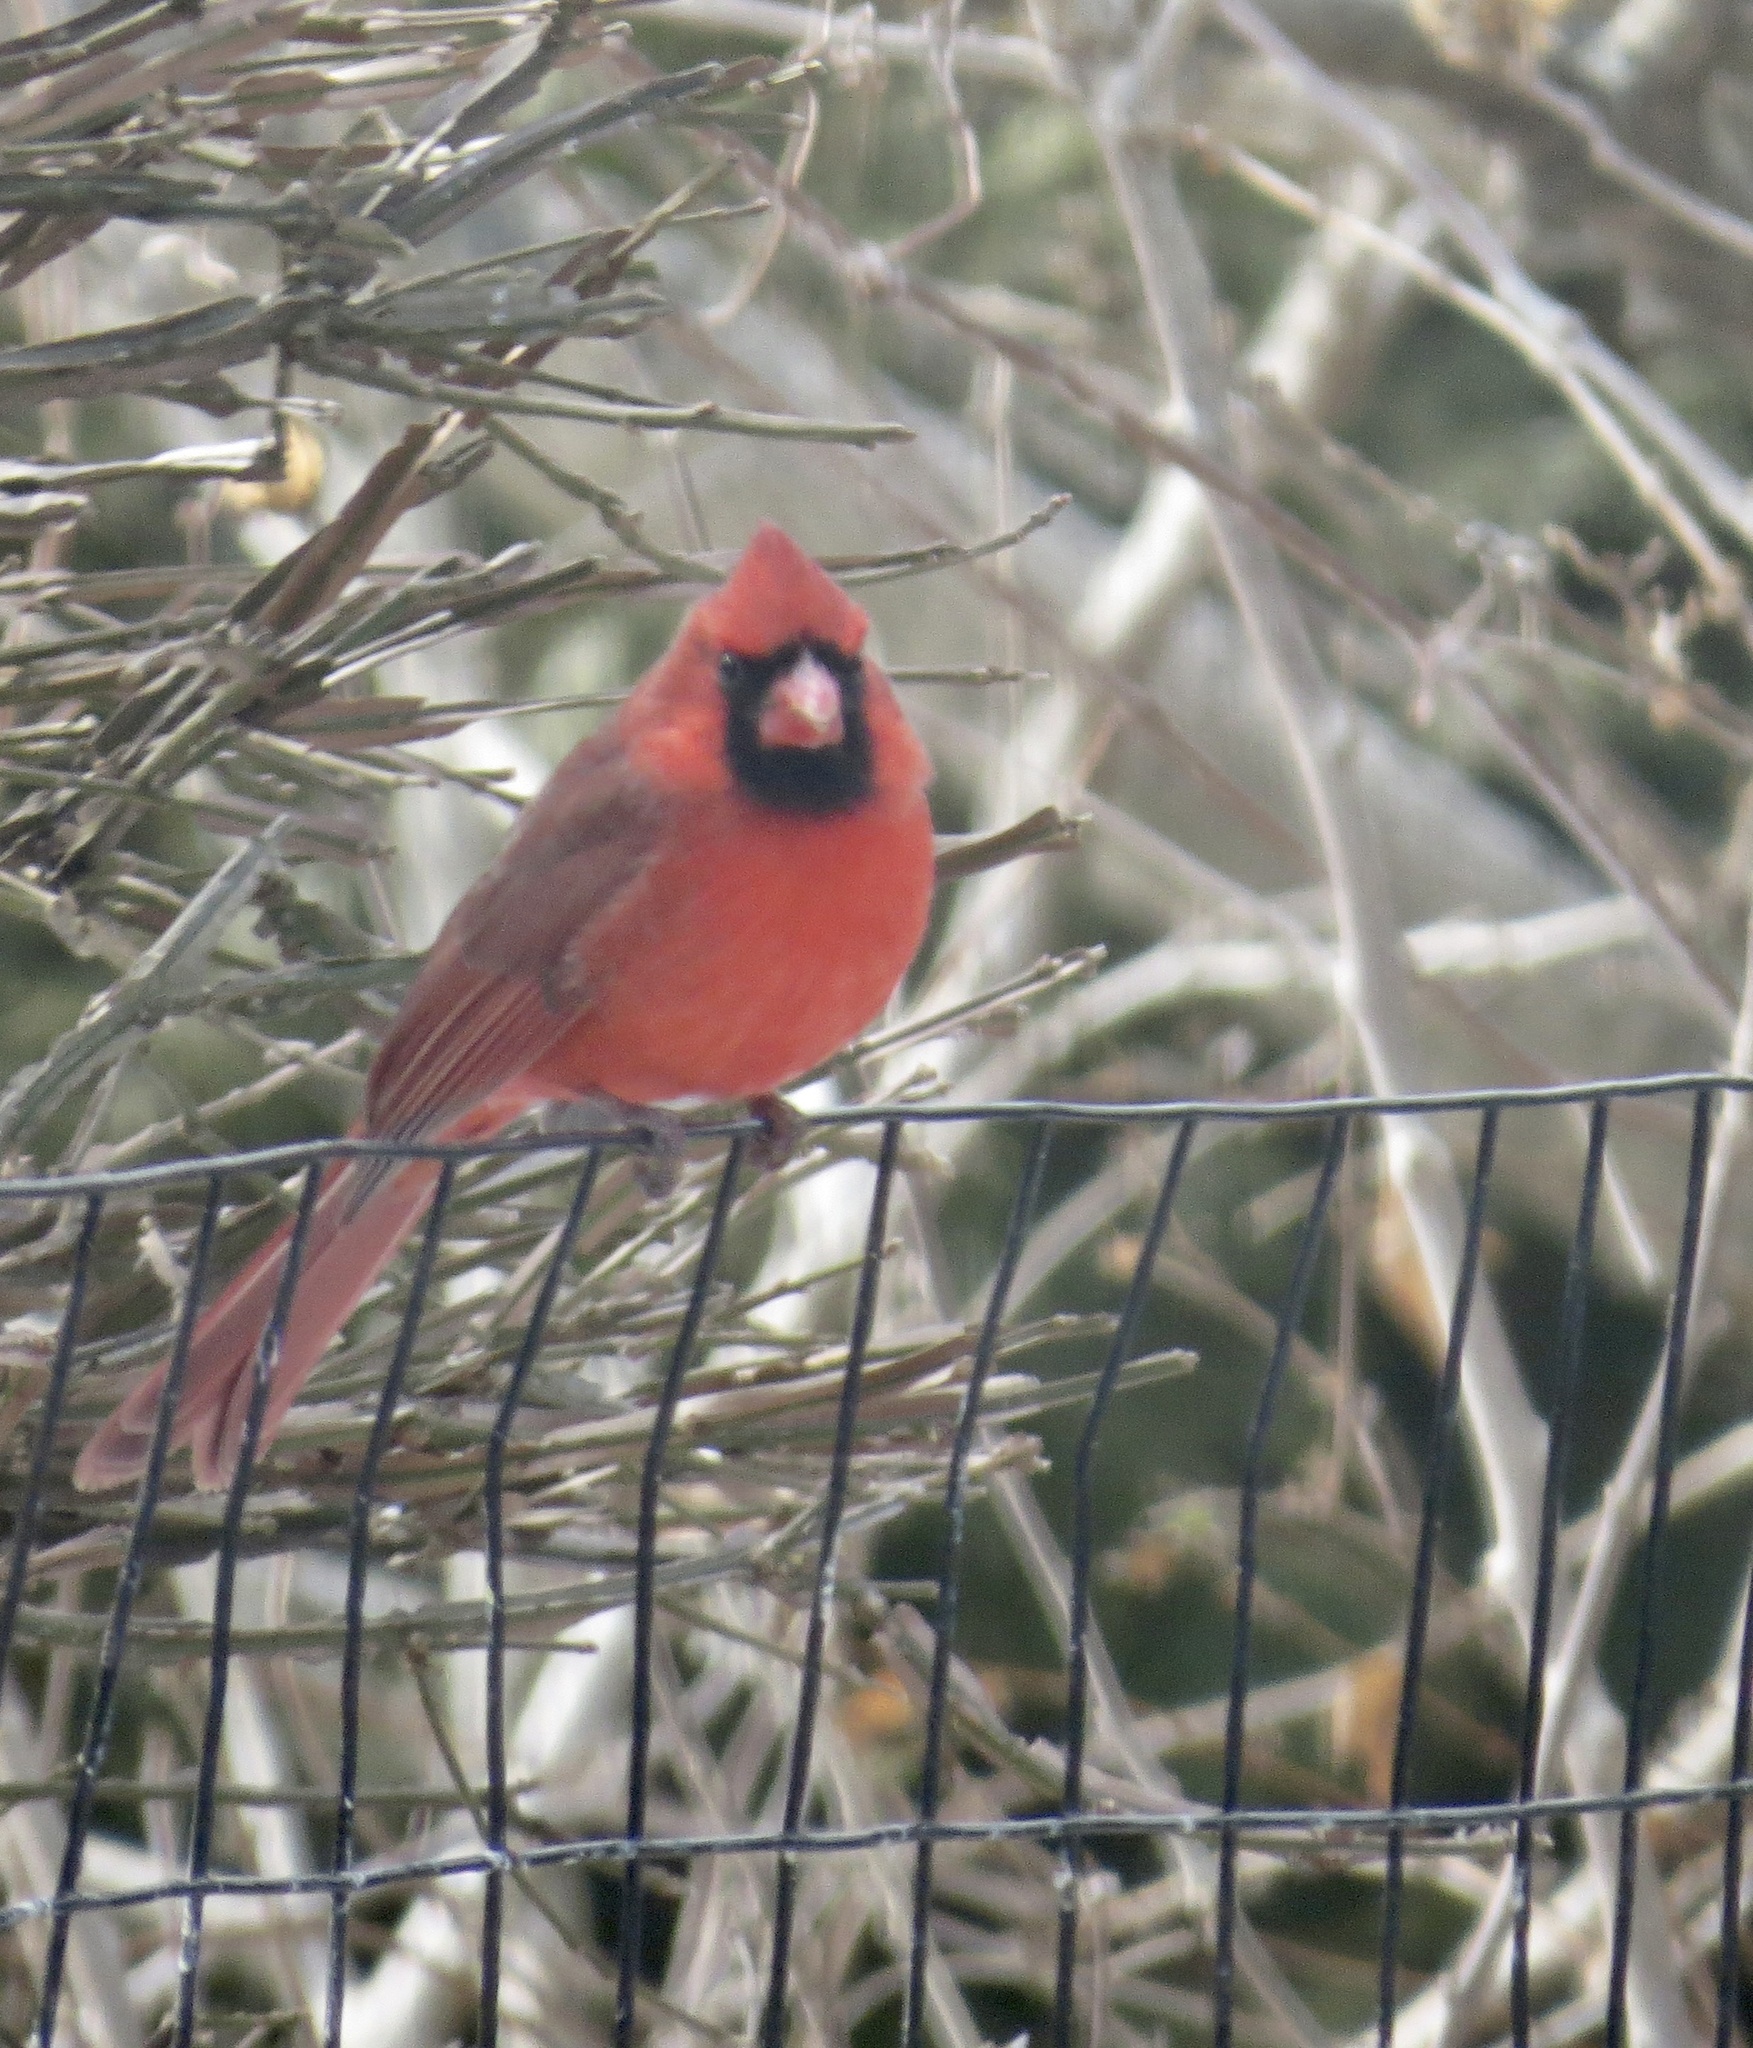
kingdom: Animalia
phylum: Chordata
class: Aves
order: Passeriformes
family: Cardinalidae
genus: Cardinalis
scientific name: Cardinalis cardinalis
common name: Northern cardinal
